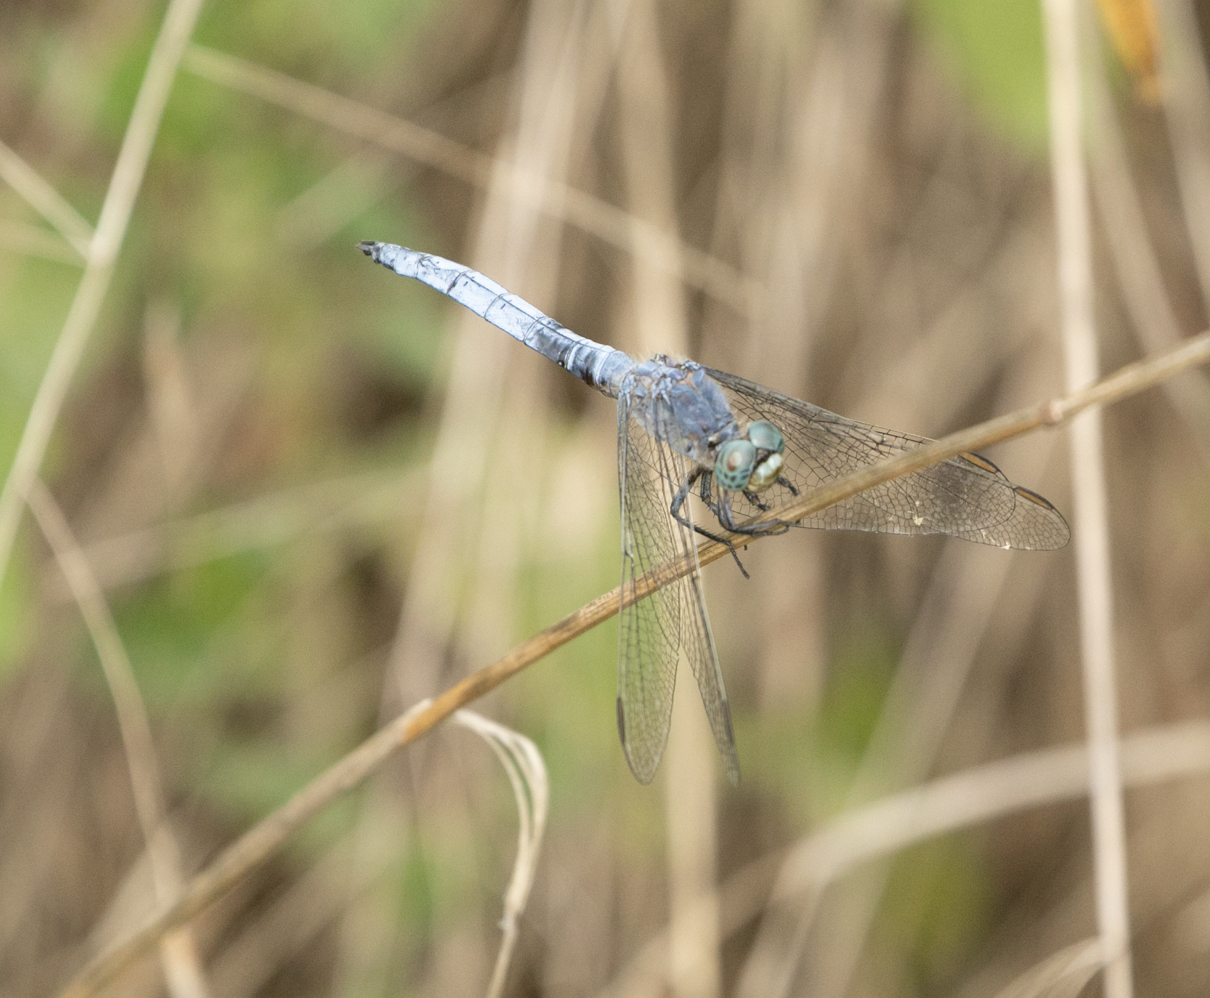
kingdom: Animalia
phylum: Arthropoda
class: Insecta
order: Odonata
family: Libellulidae
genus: Orthetrum
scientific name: Orthetrum coerulescens
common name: Keeled skimmer
